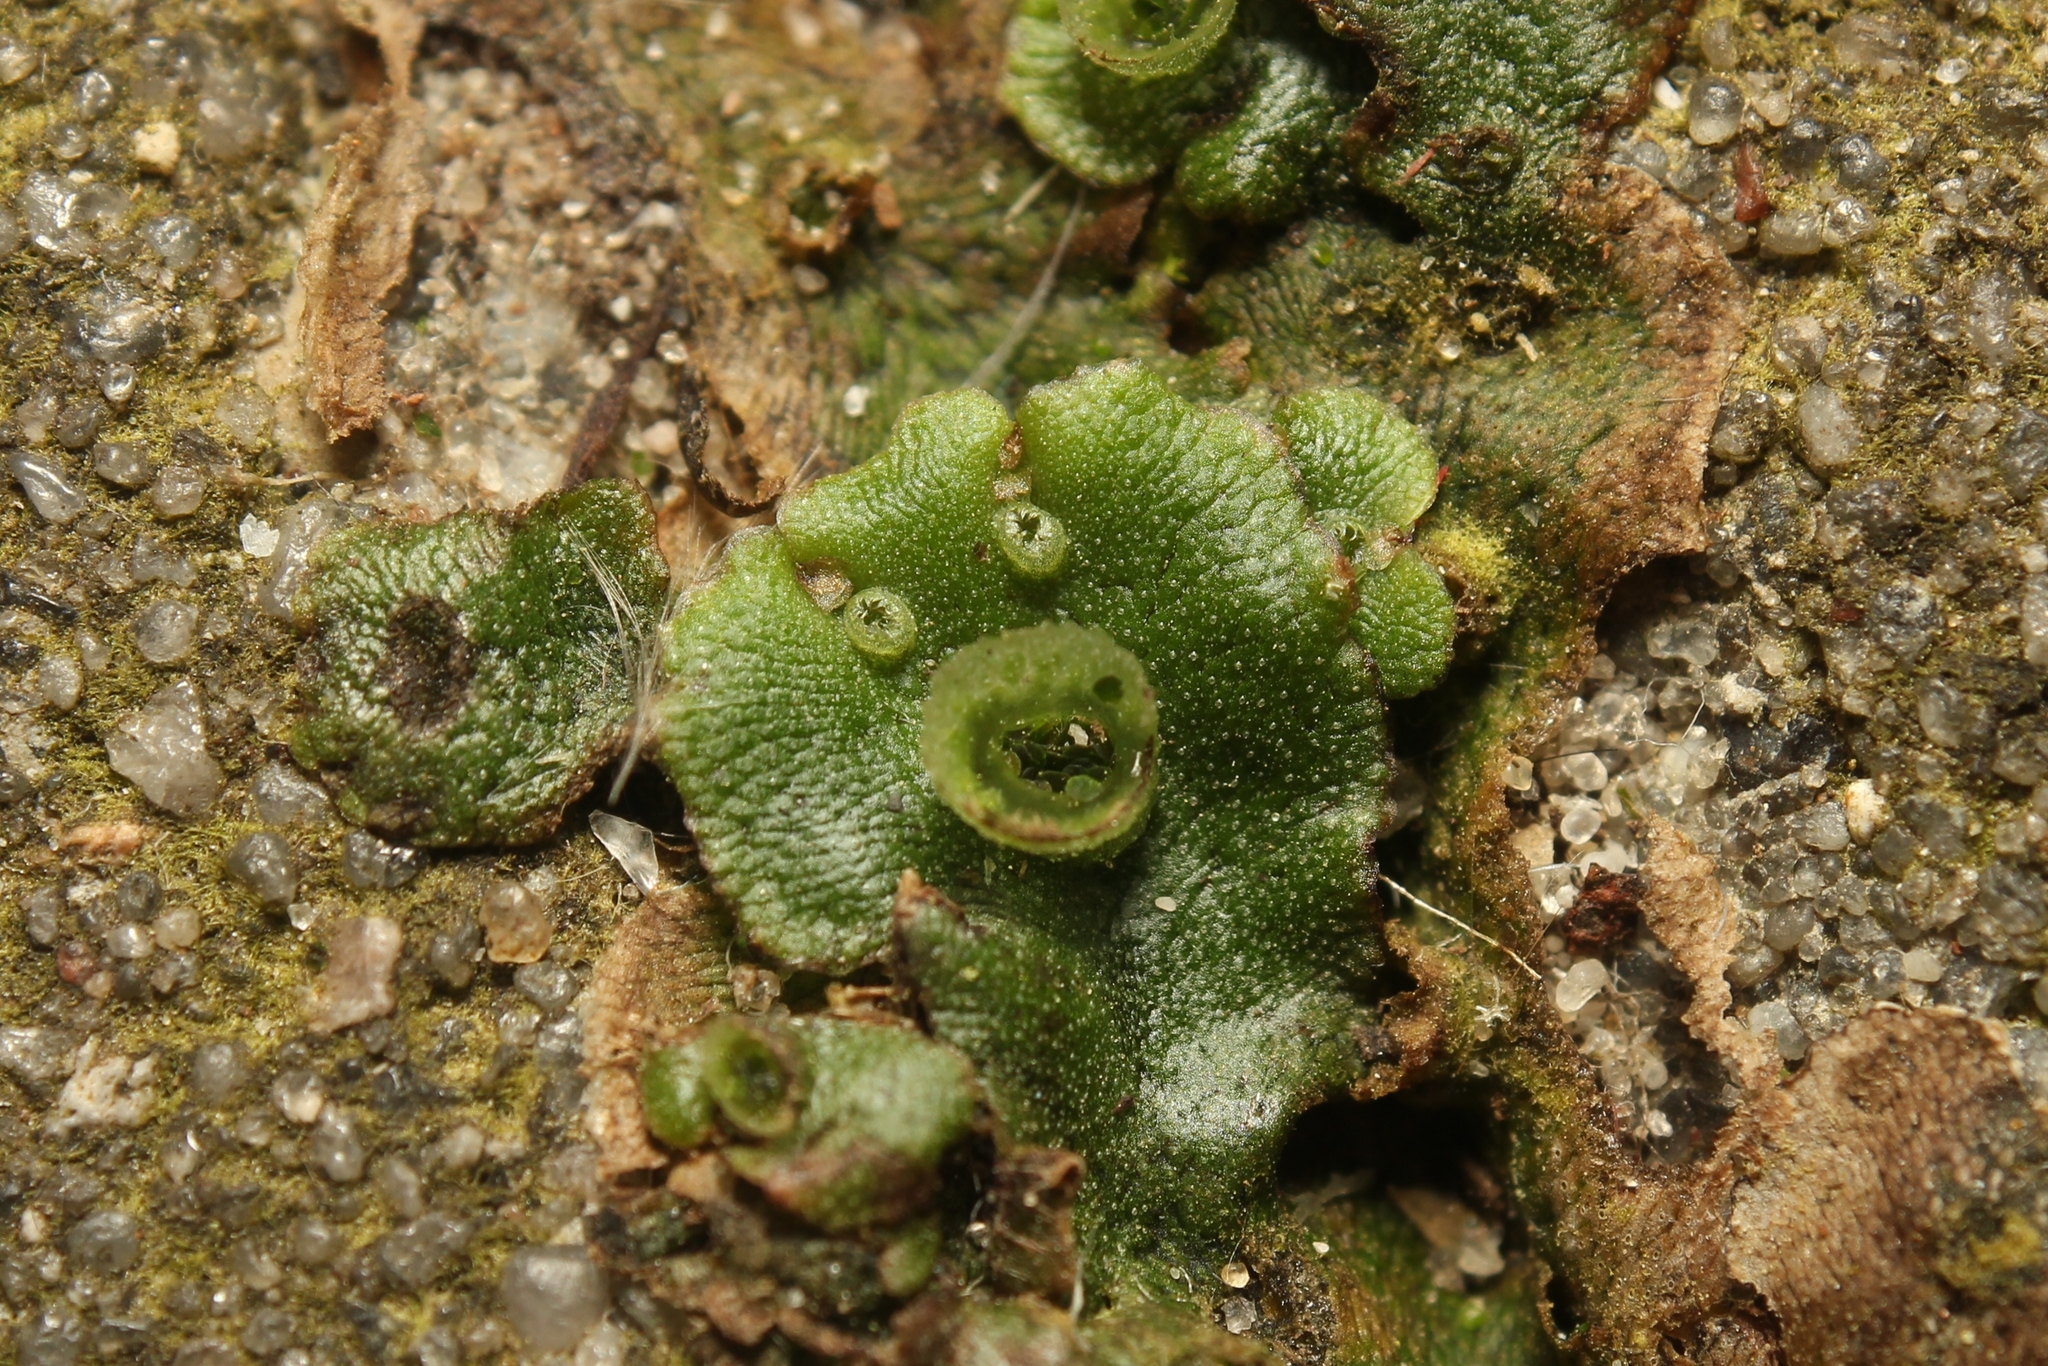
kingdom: Plantae
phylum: Marchantiophyta
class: Marchantiopsida
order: Marchantiales
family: Marchantiaceae
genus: Marchantia
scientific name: Marchantia polymorpha
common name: Common liverwort
